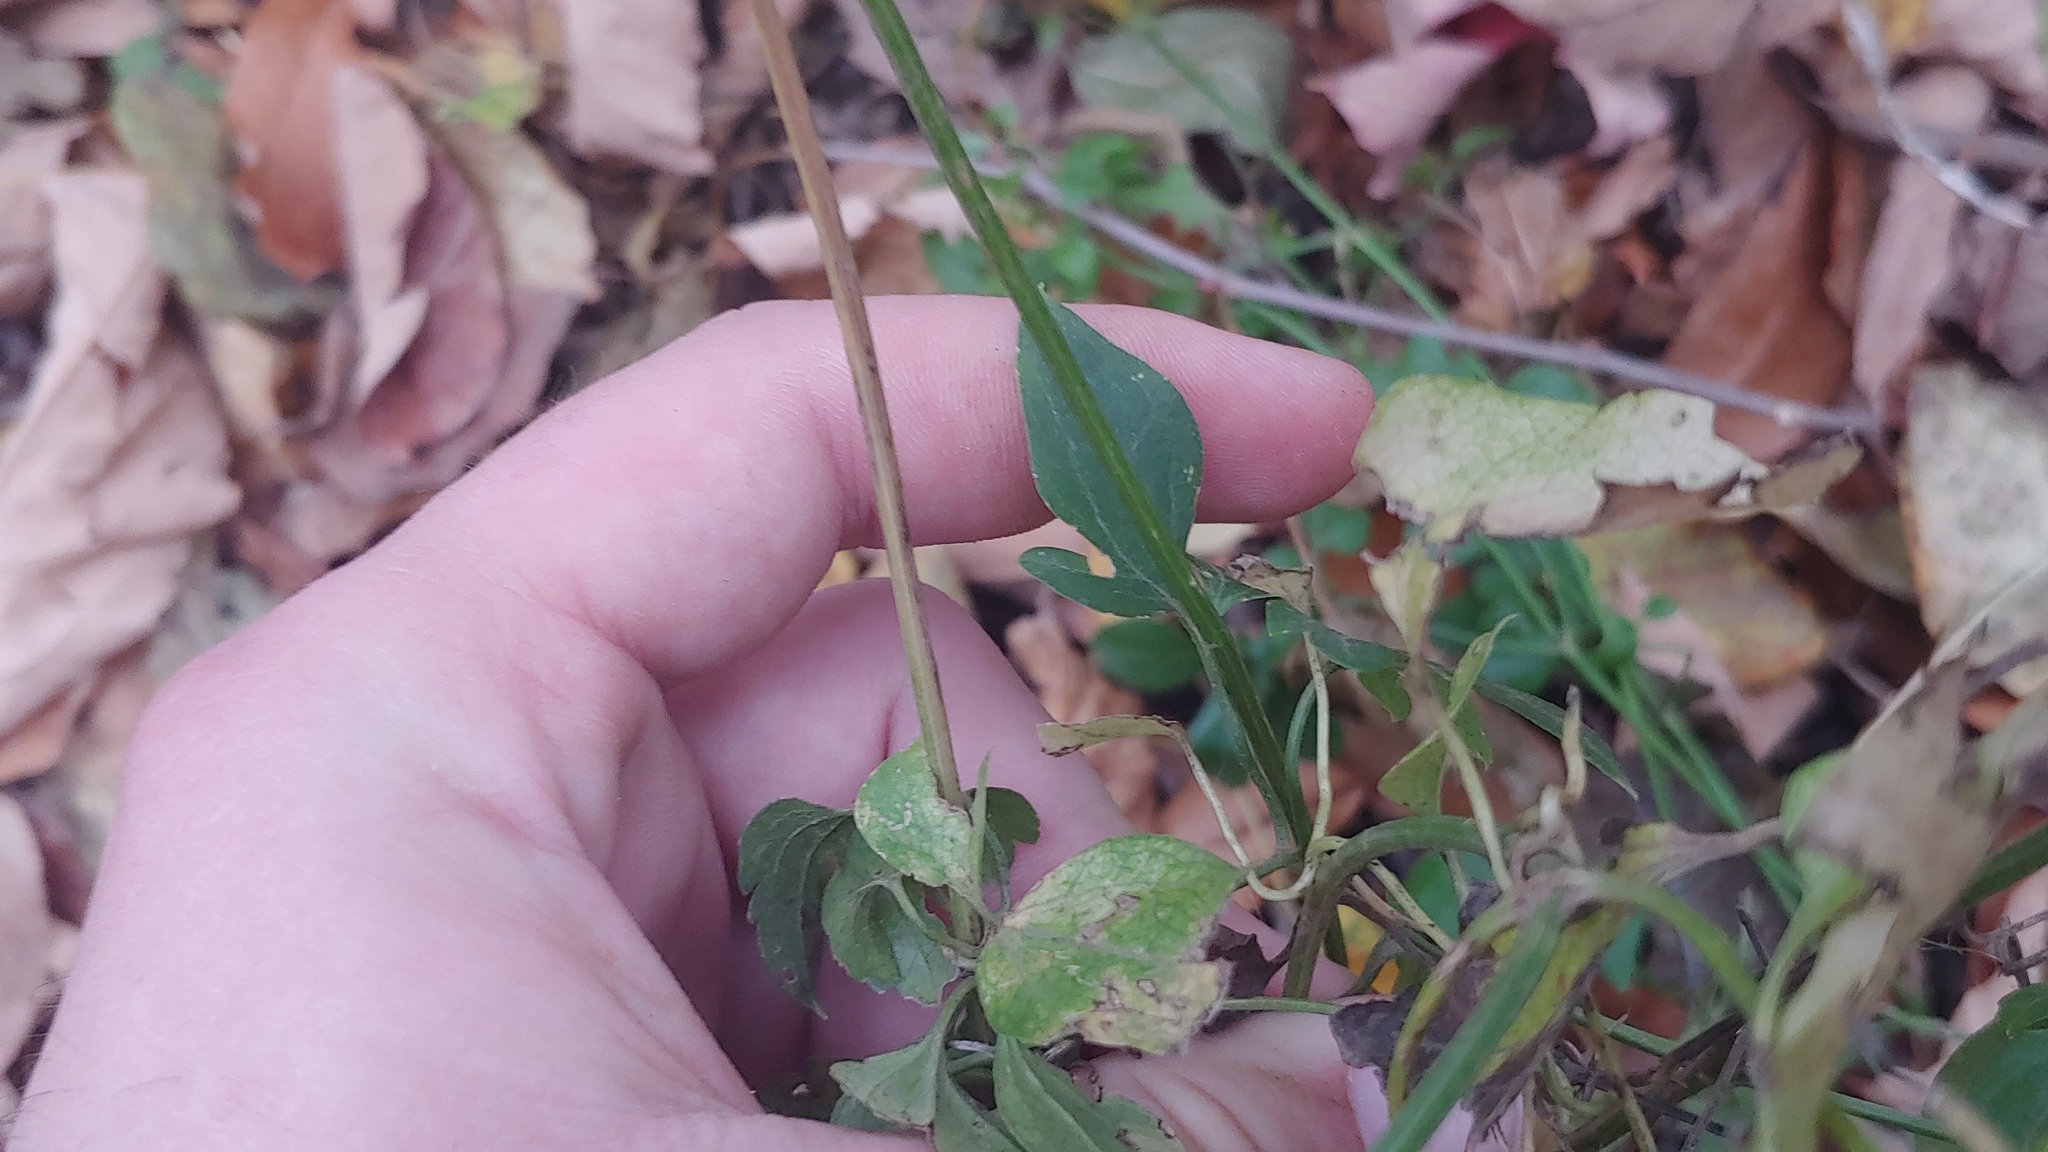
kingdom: Plantae
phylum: Tracheophyta
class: Magnoliopsida
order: Ranunculales
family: Ranunculaceae
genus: Clematis
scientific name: Clematis terniflora
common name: Sweet autumn clematis
